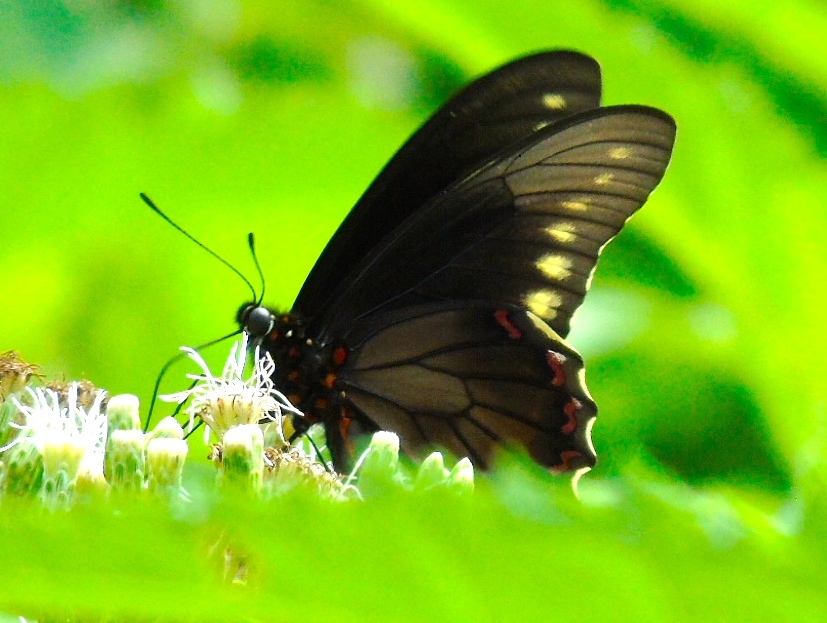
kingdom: Animalia
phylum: Arthropoda
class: Insecta
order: Lepidoptera
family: Papilionidae
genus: Battus
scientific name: Battus polydamas
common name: Polydamas swallowtail
